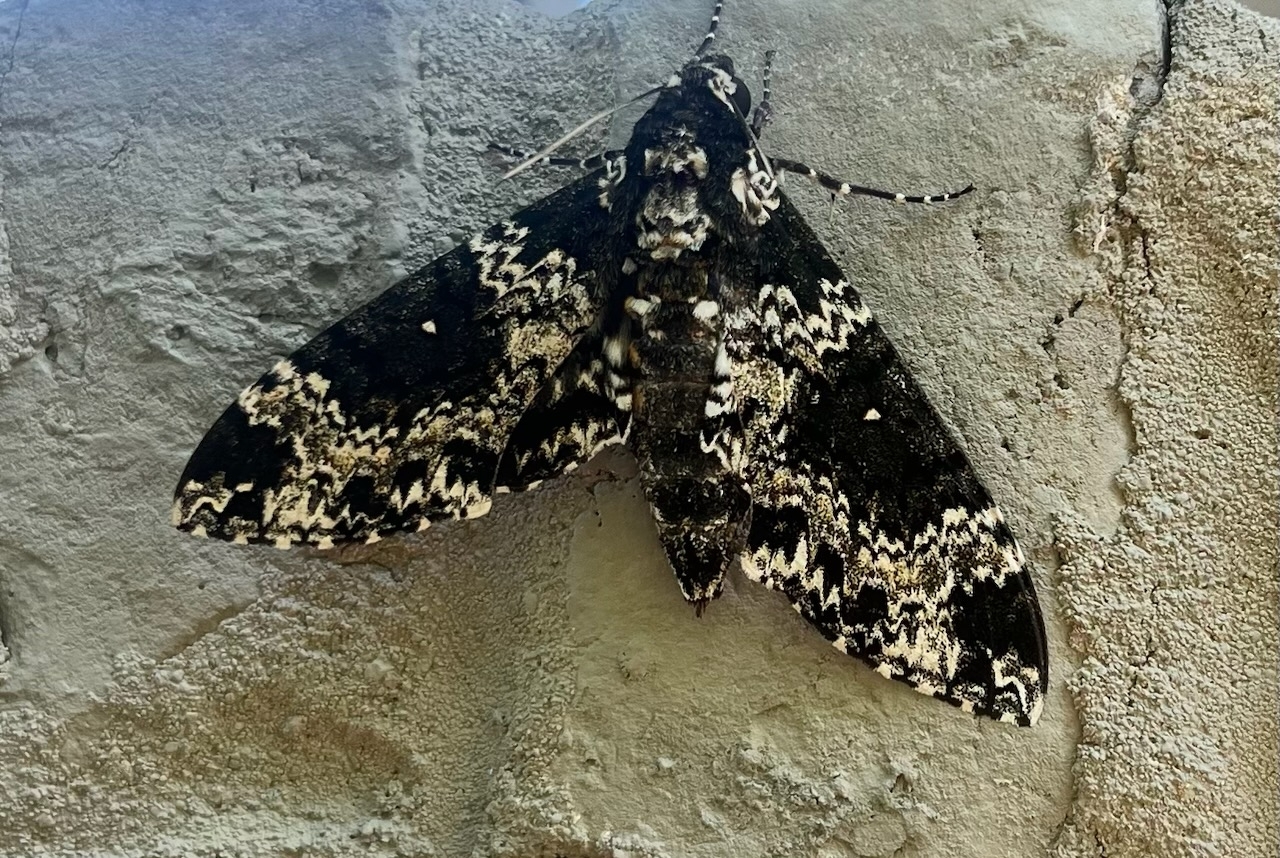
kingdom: Animalia
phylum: Arthropoda
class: Insecta
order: Lepidoptera
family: Sphingidae
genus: Manduca
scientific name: Manduca rustica
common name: Rustic sphinx
